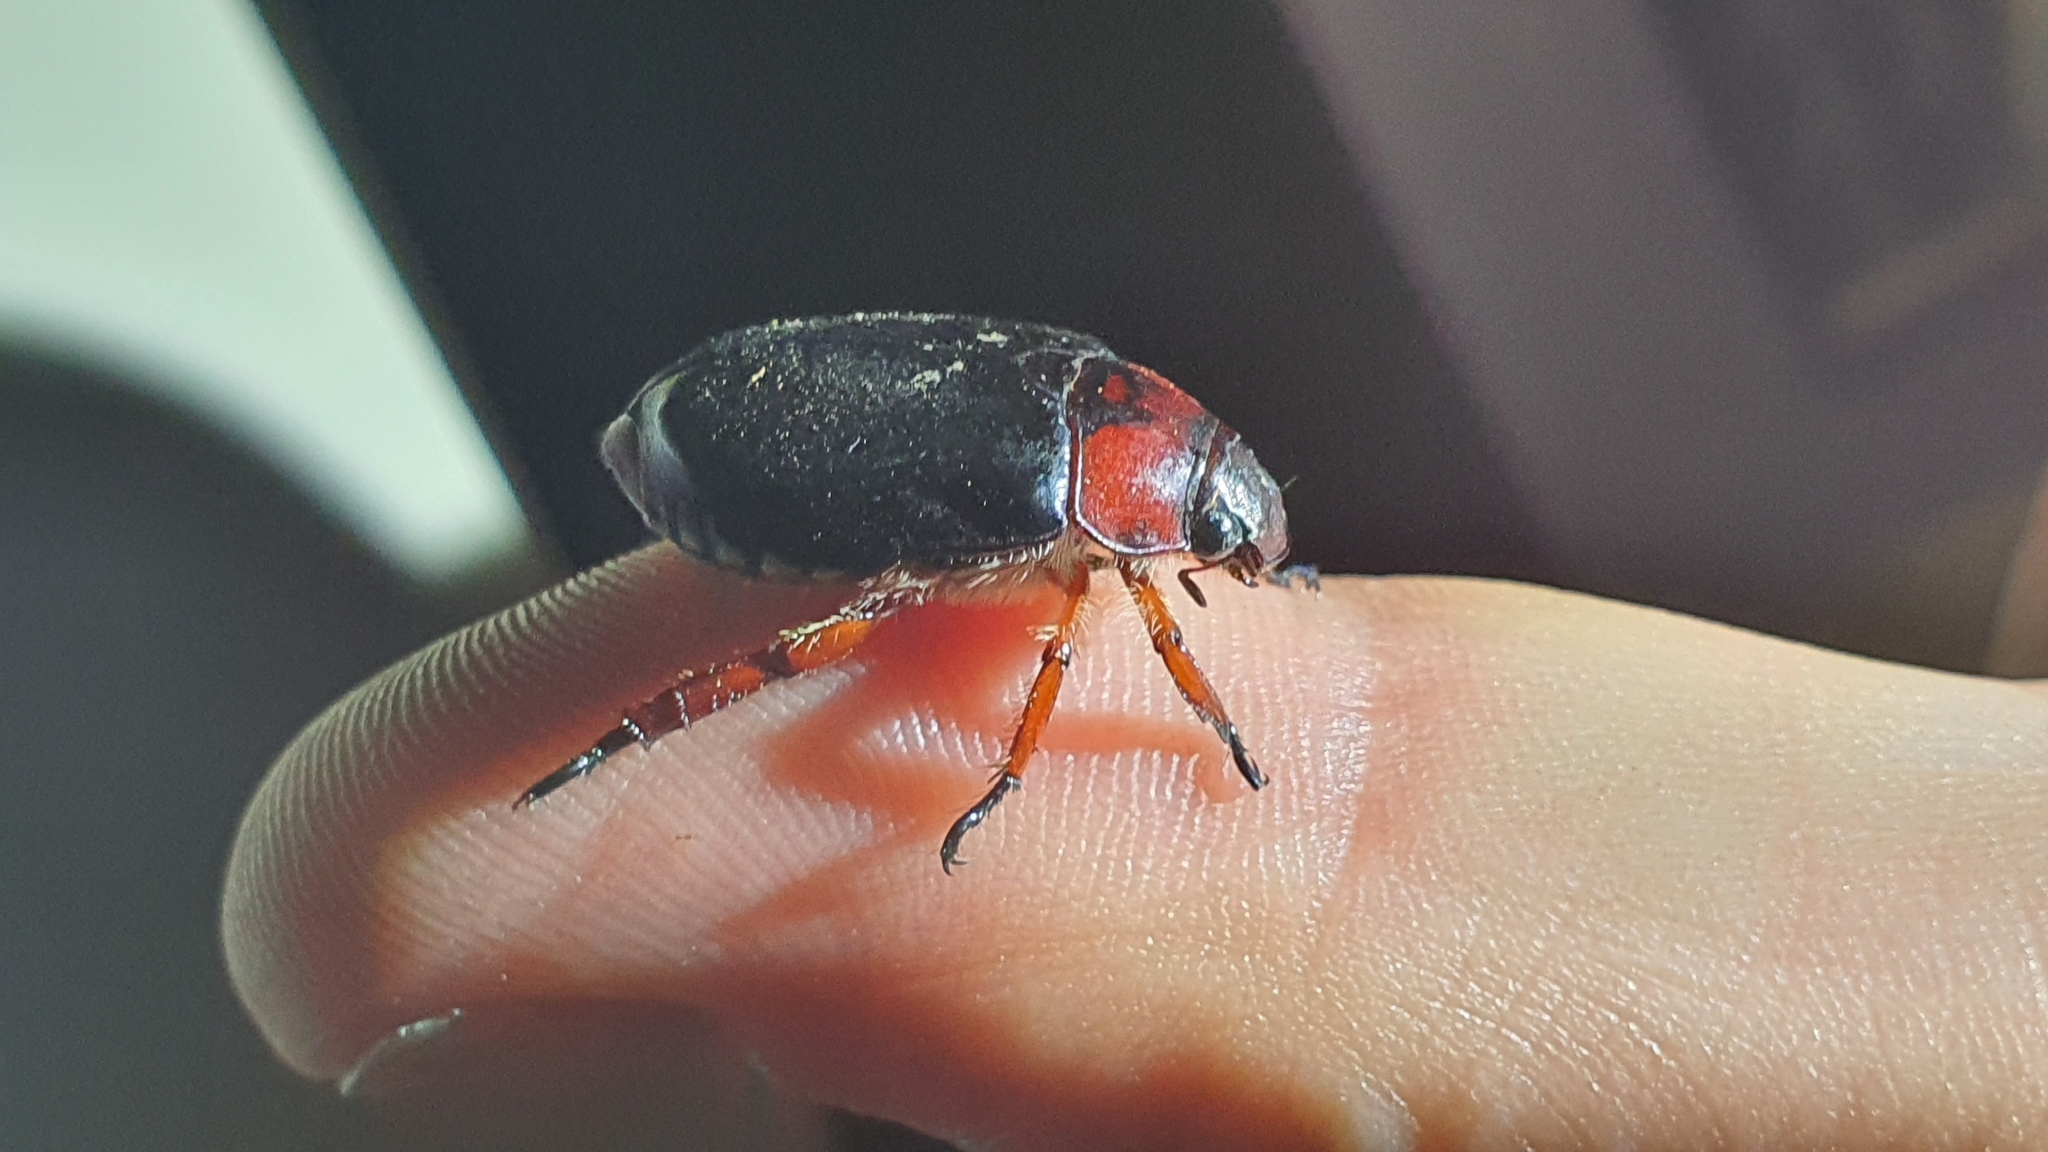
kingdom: Animalia
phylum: Arthropoda
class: Insecta
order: Coleoptera
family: Scarabaeidae
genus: Repsimus
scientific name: Repsimus manicatus
